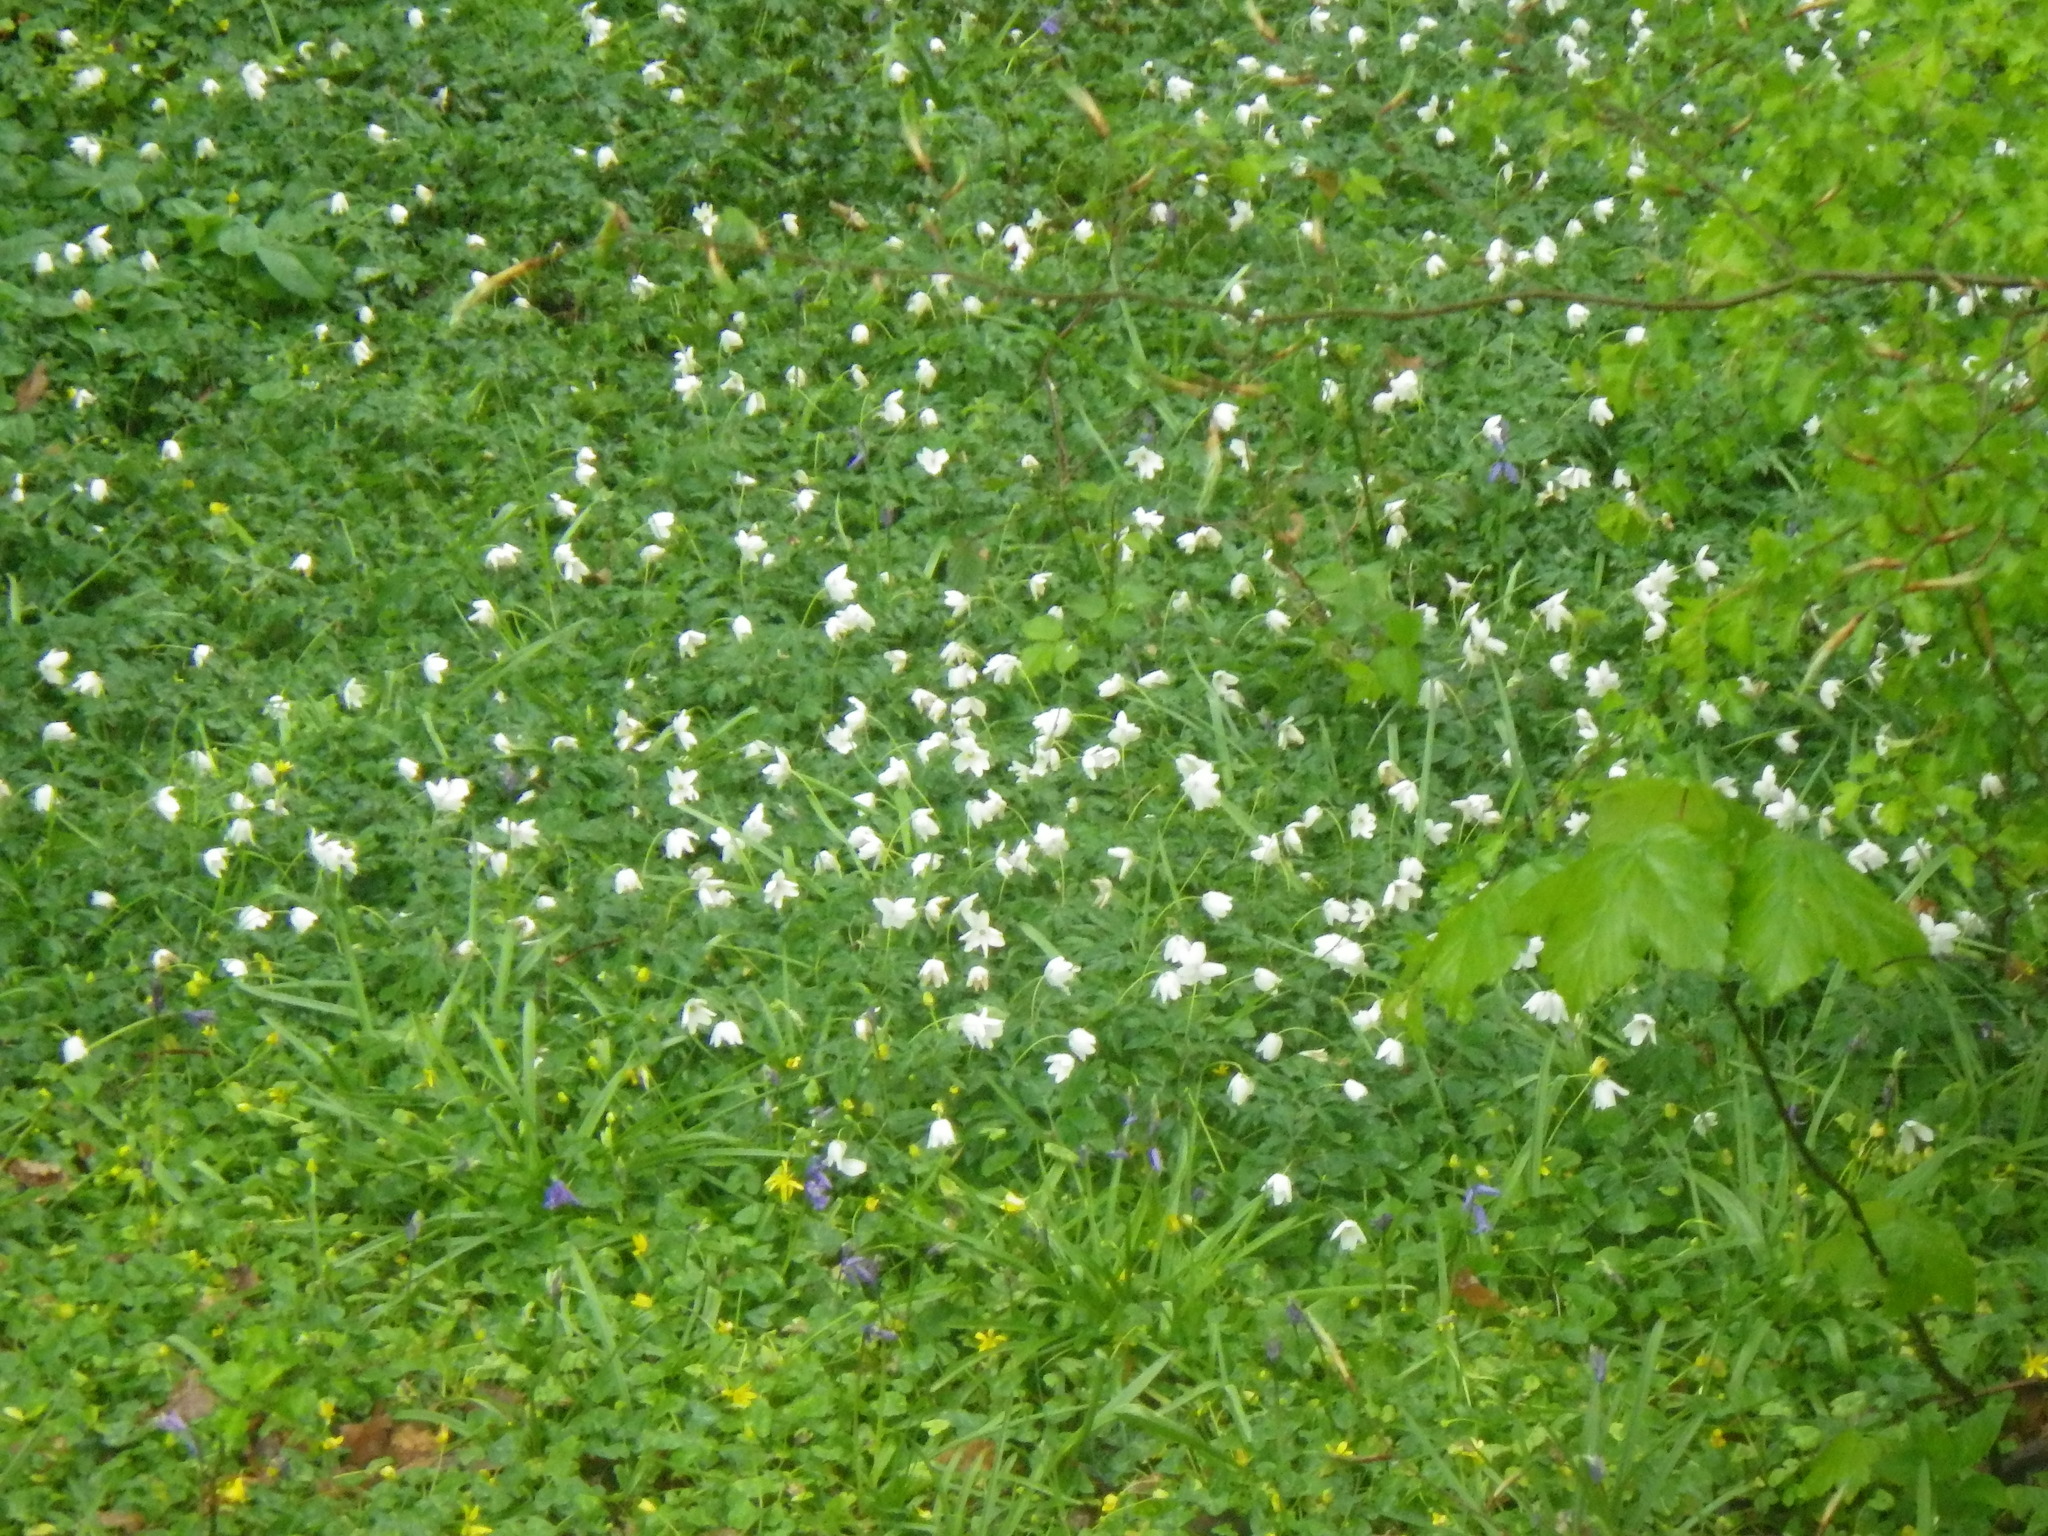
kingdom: Plantae
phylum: Tracheophyta
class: Magnoliopsida
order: Ranunculales
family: Ranunculaceae
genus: Anemone
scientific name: Anemone nemorosa
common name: Wood anemone
